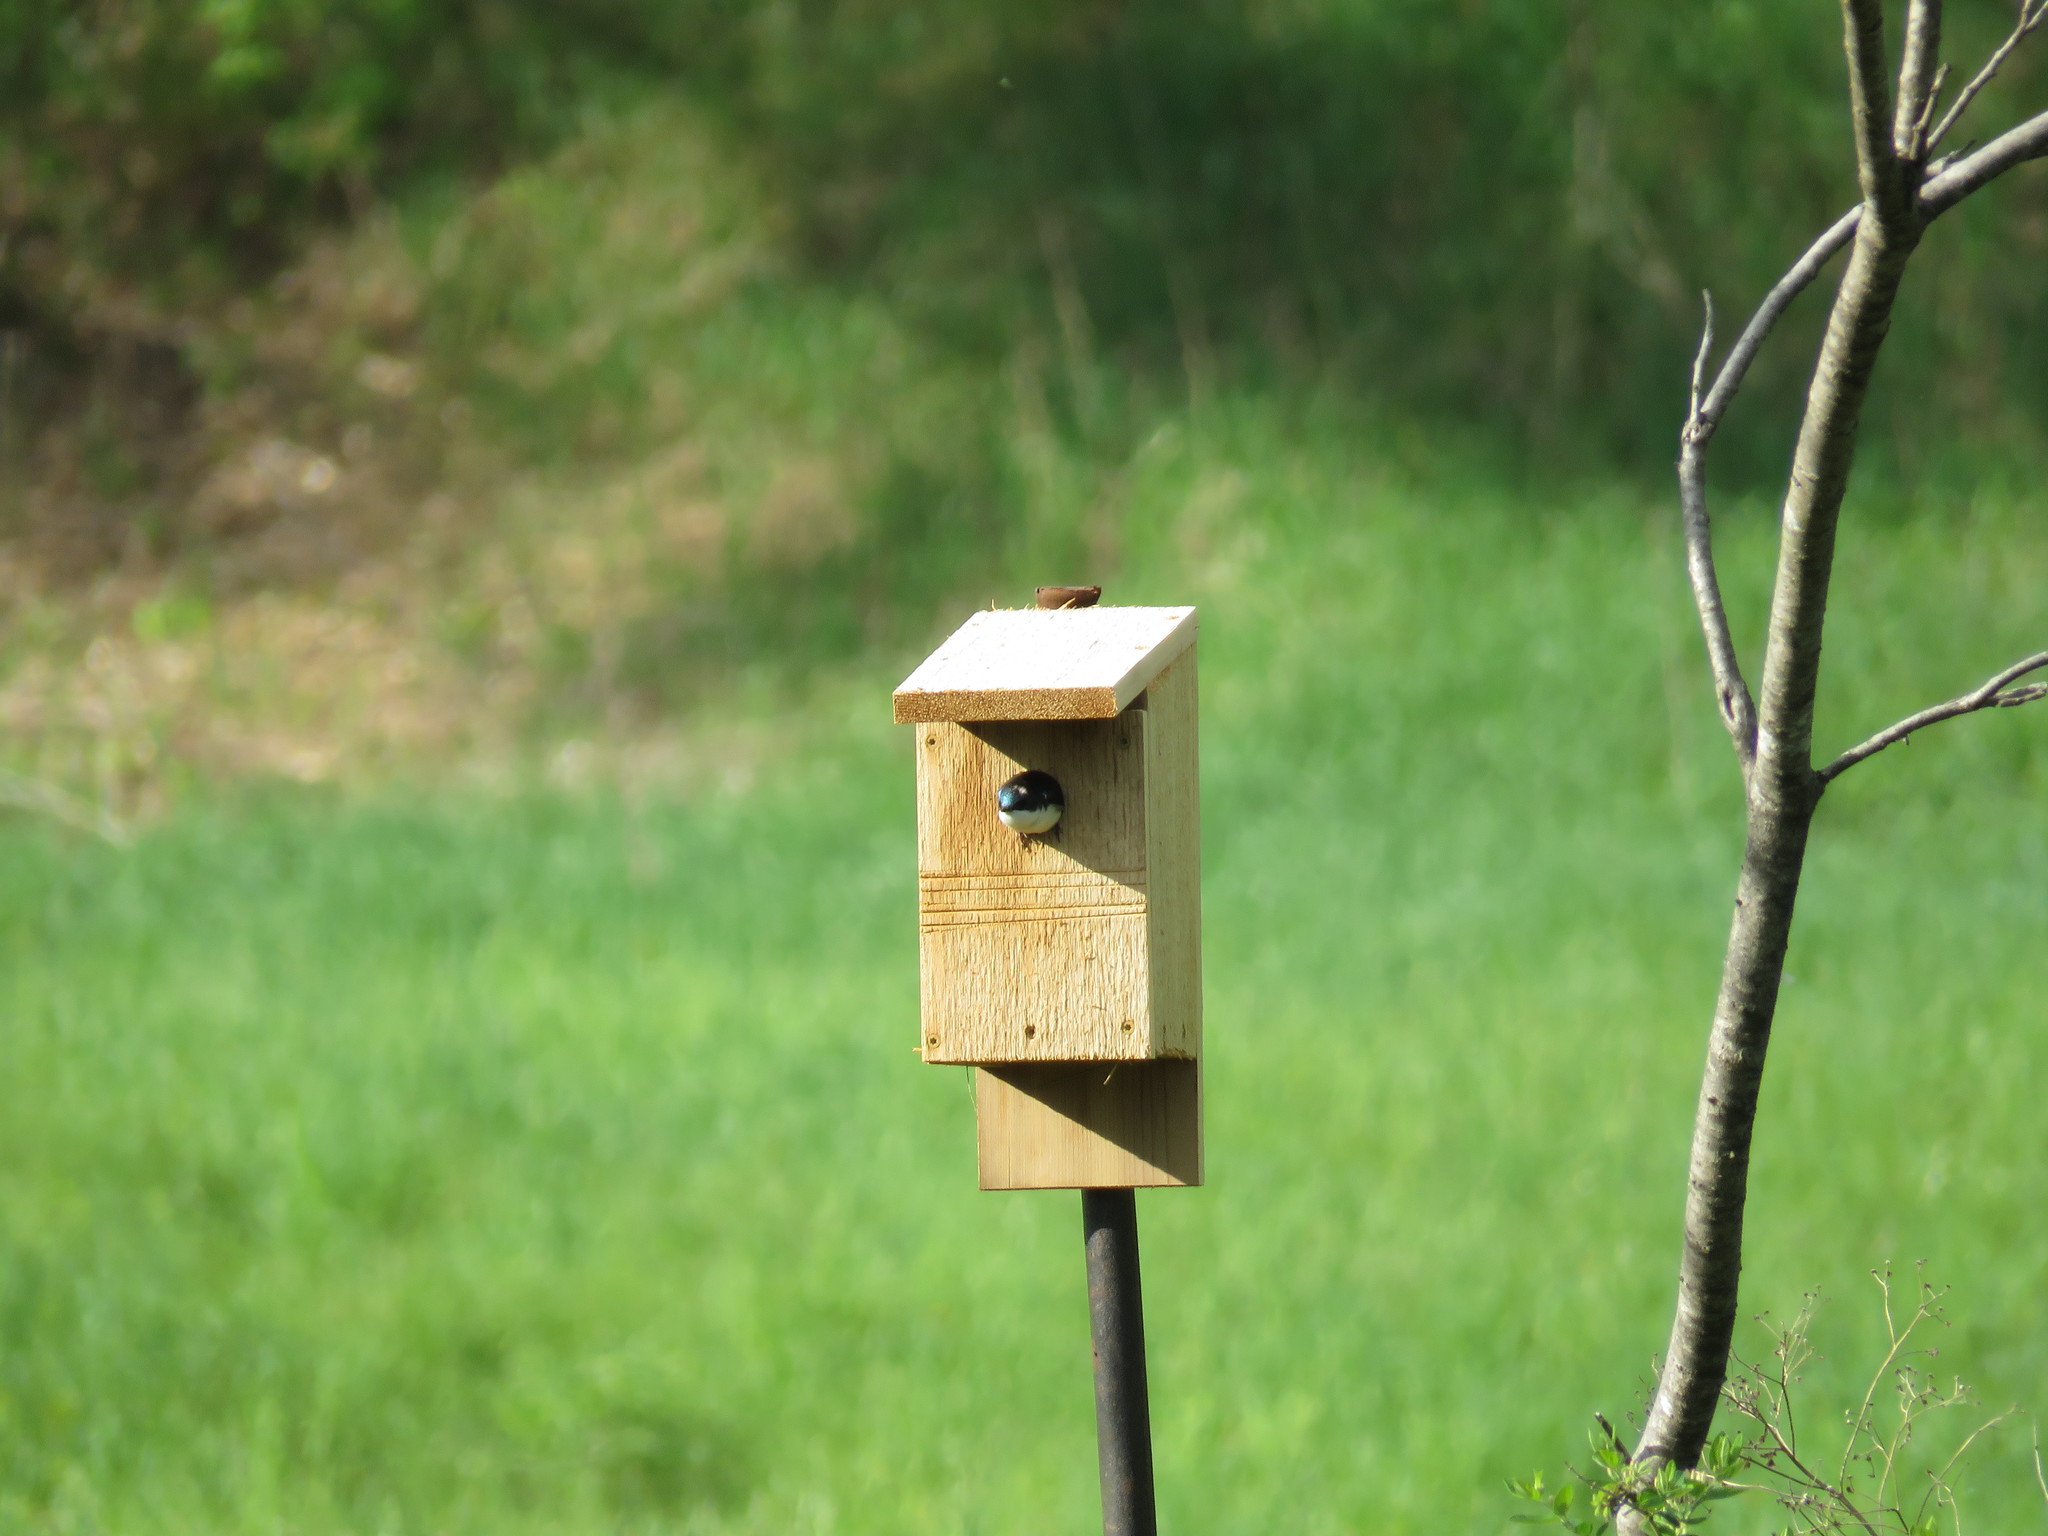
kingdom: Animalia
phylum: Chordata
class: Aves
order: Passeriformes
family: Hirundinidae
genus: Tachycineta
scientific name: Tachycineta bicolor
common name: Tree swallow
